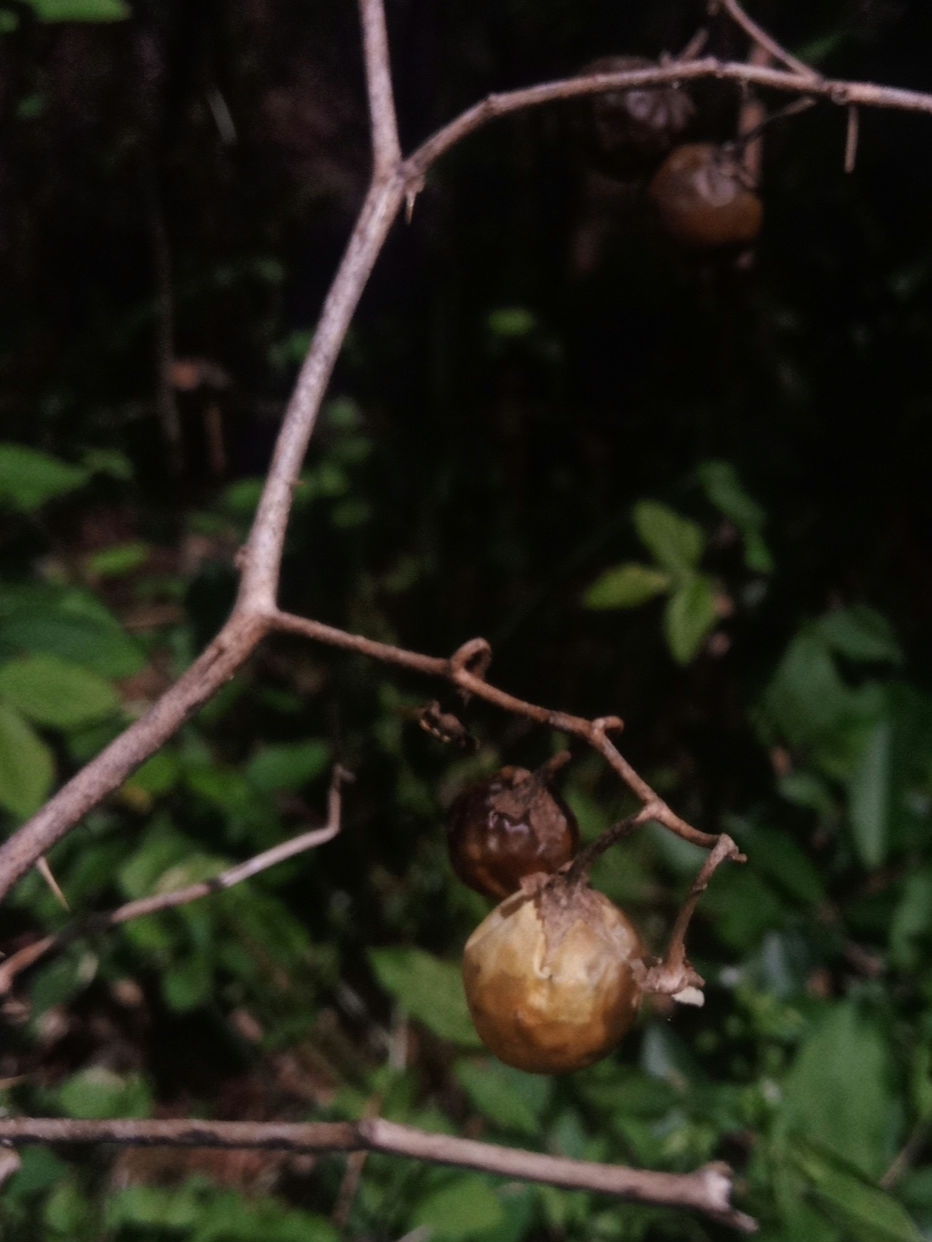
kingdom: Plantae
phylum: Tracheophyta
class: Magnoliopsida
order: Solanales
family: Solanaceae
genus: Solanum
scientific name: Solanum carolinense
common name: Horse-nettle
